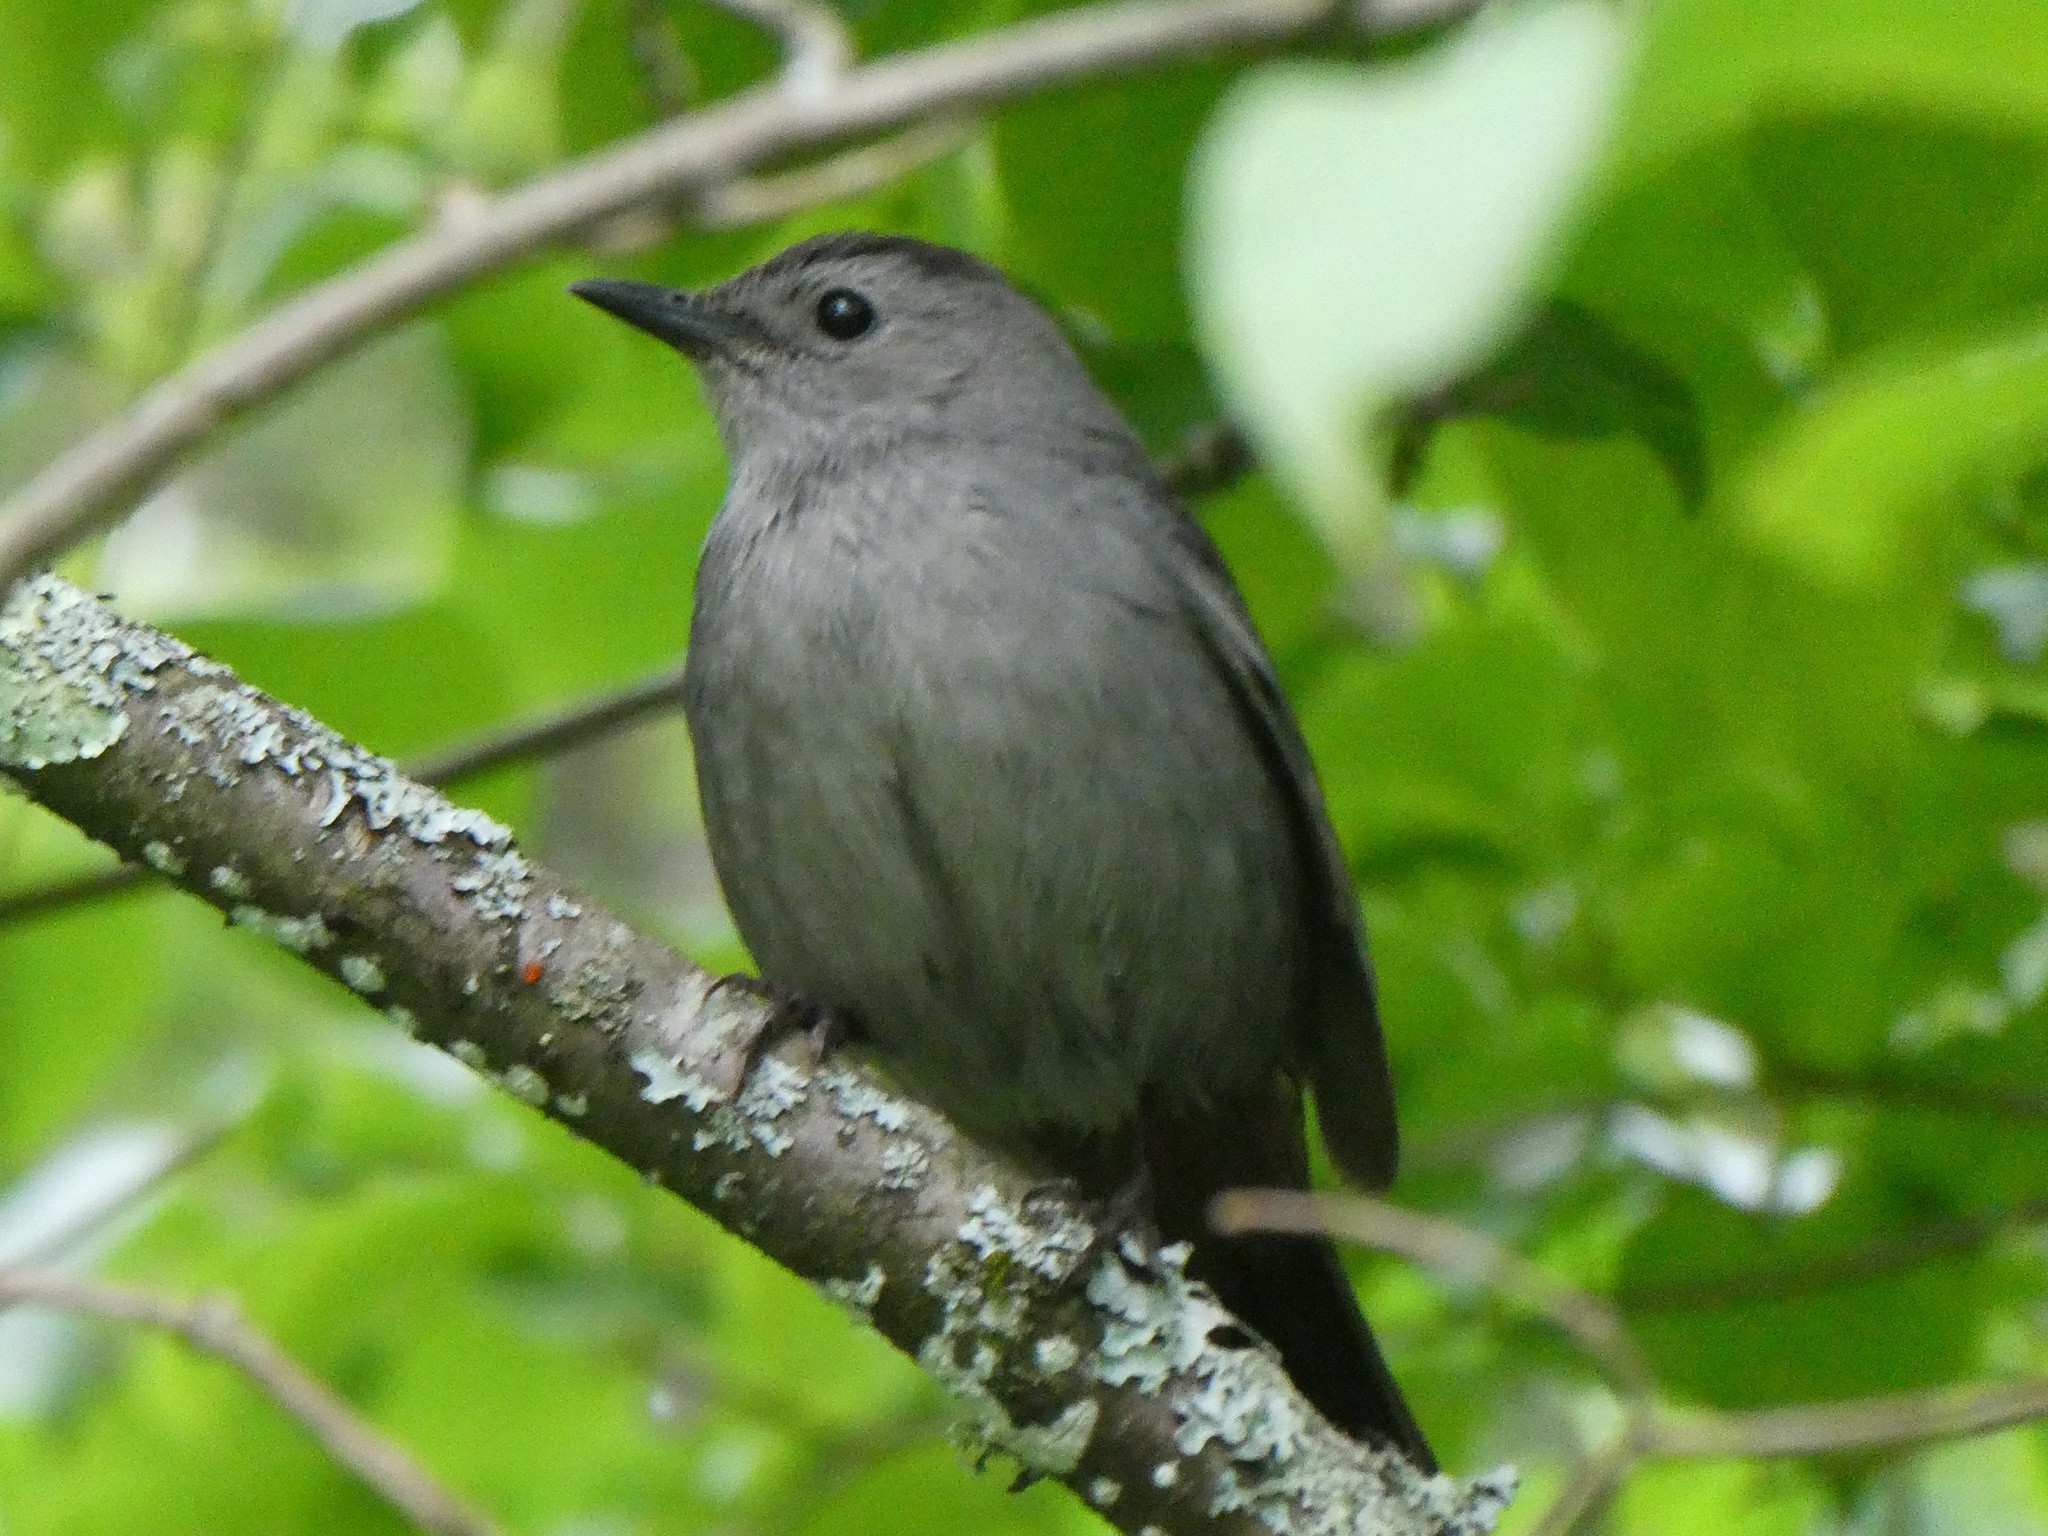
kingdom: Animalia
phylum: Chordata
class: Aves
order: Passeriformes
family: Mimidae
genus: Dumetella
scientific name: Dumetella carolinensis
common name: Gray catbird
